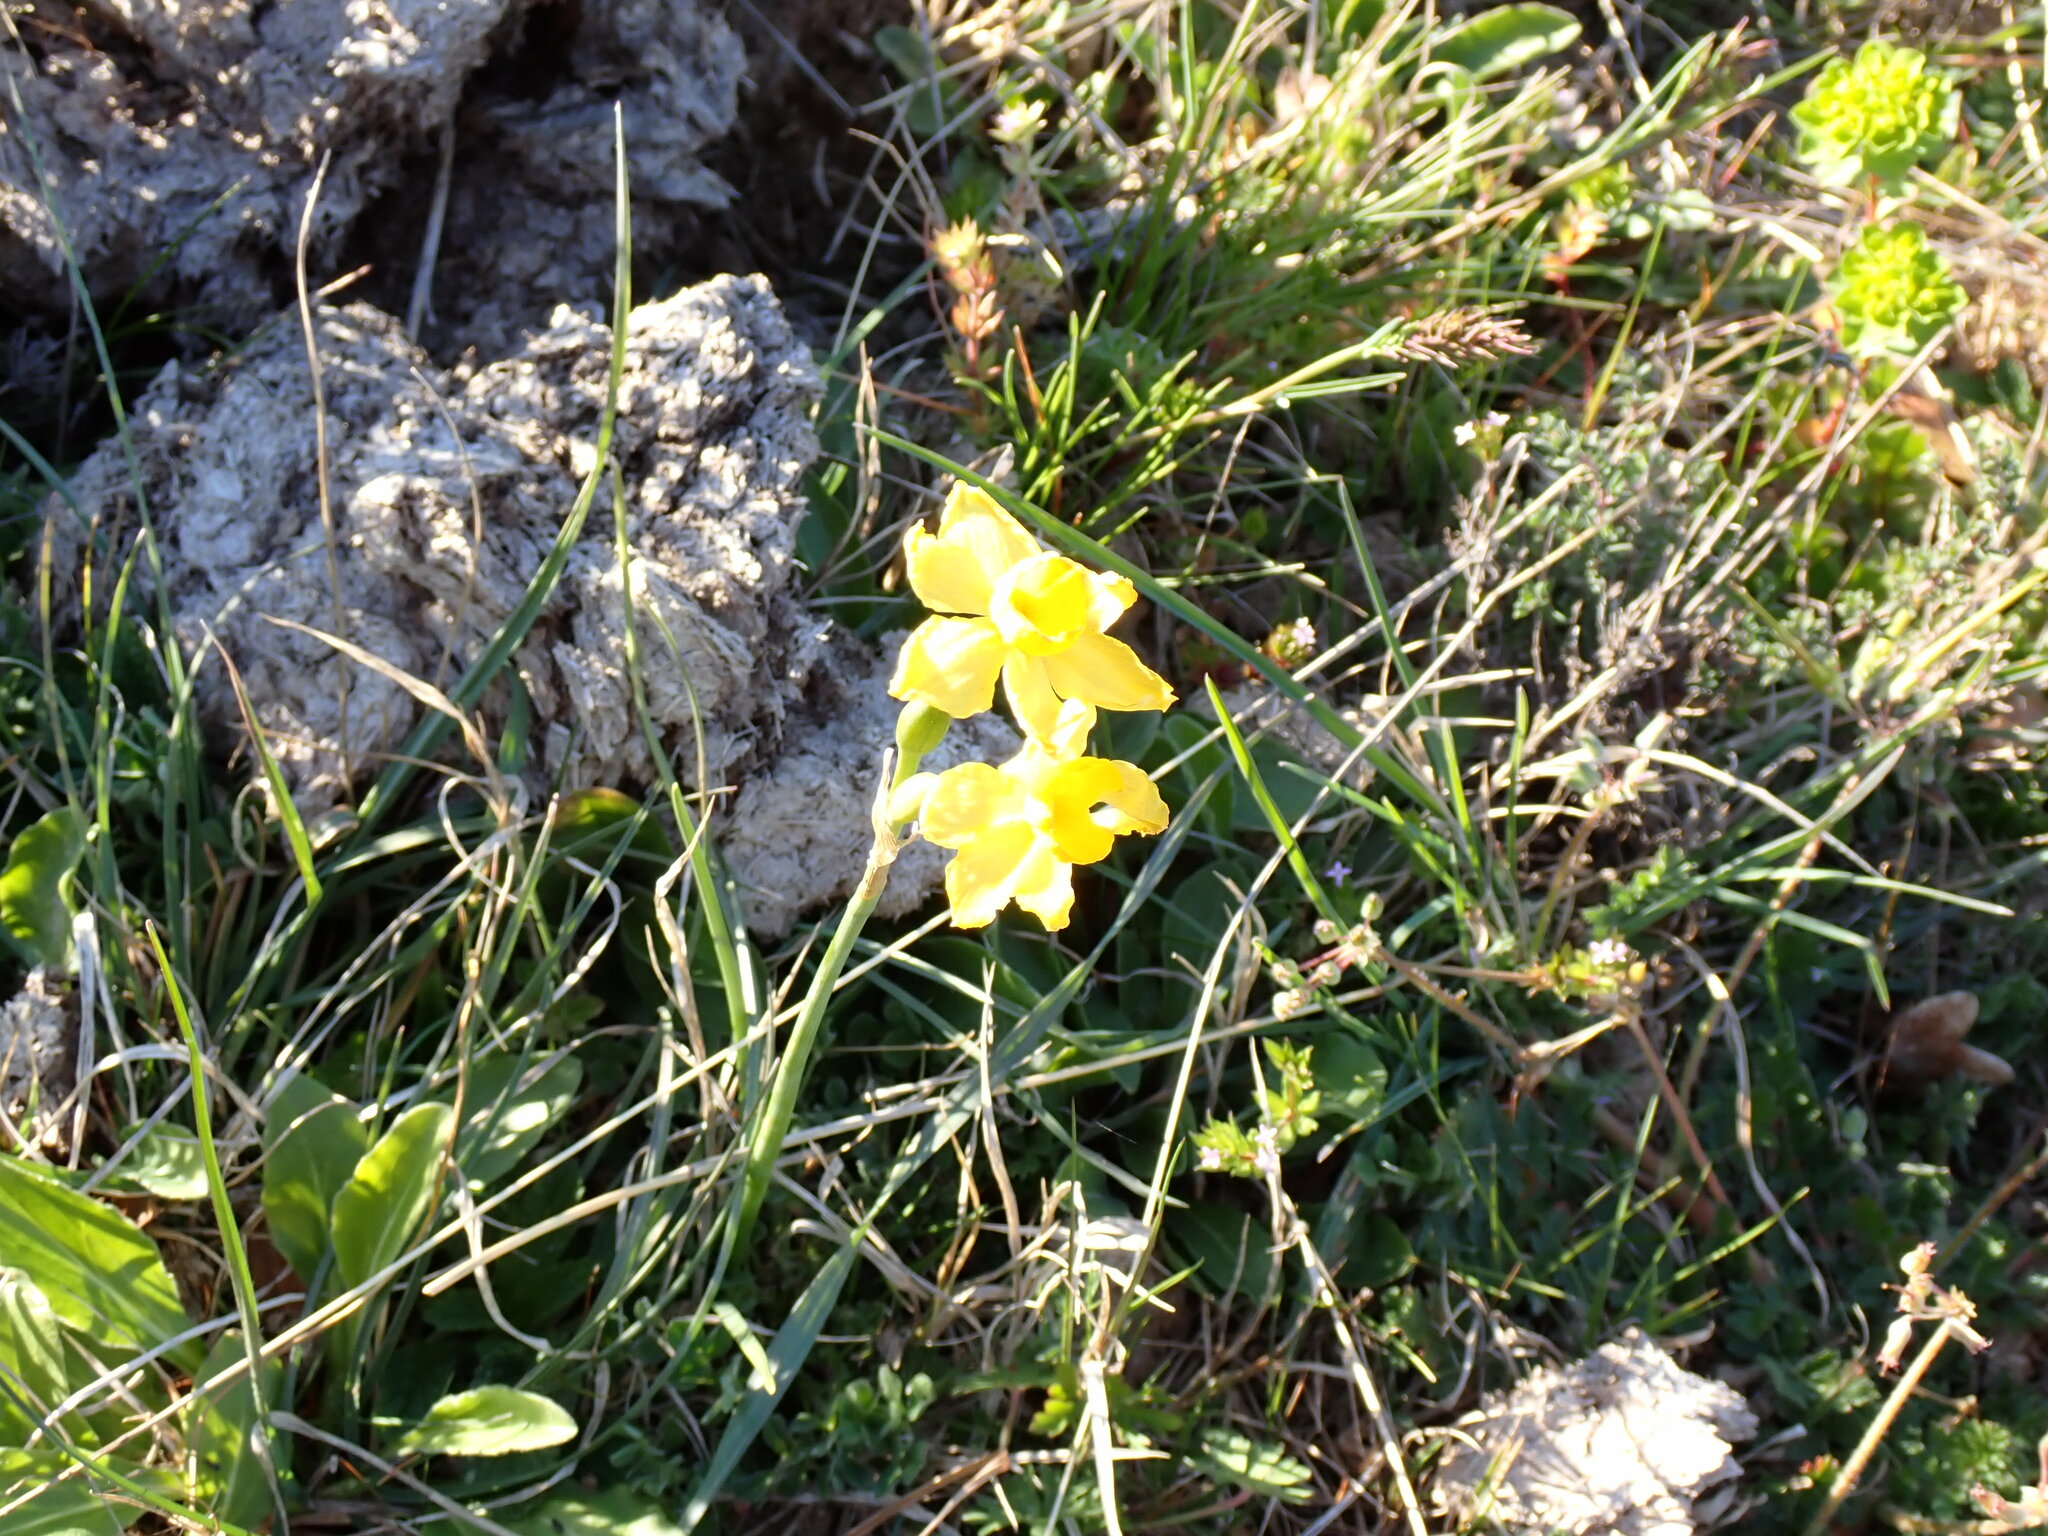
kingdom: Plantae
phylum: Tracheophyta
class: Liliopsida
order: Asparagales
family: Amaryllidaceae
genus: Narcissus
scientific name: Narcissus assoanus
